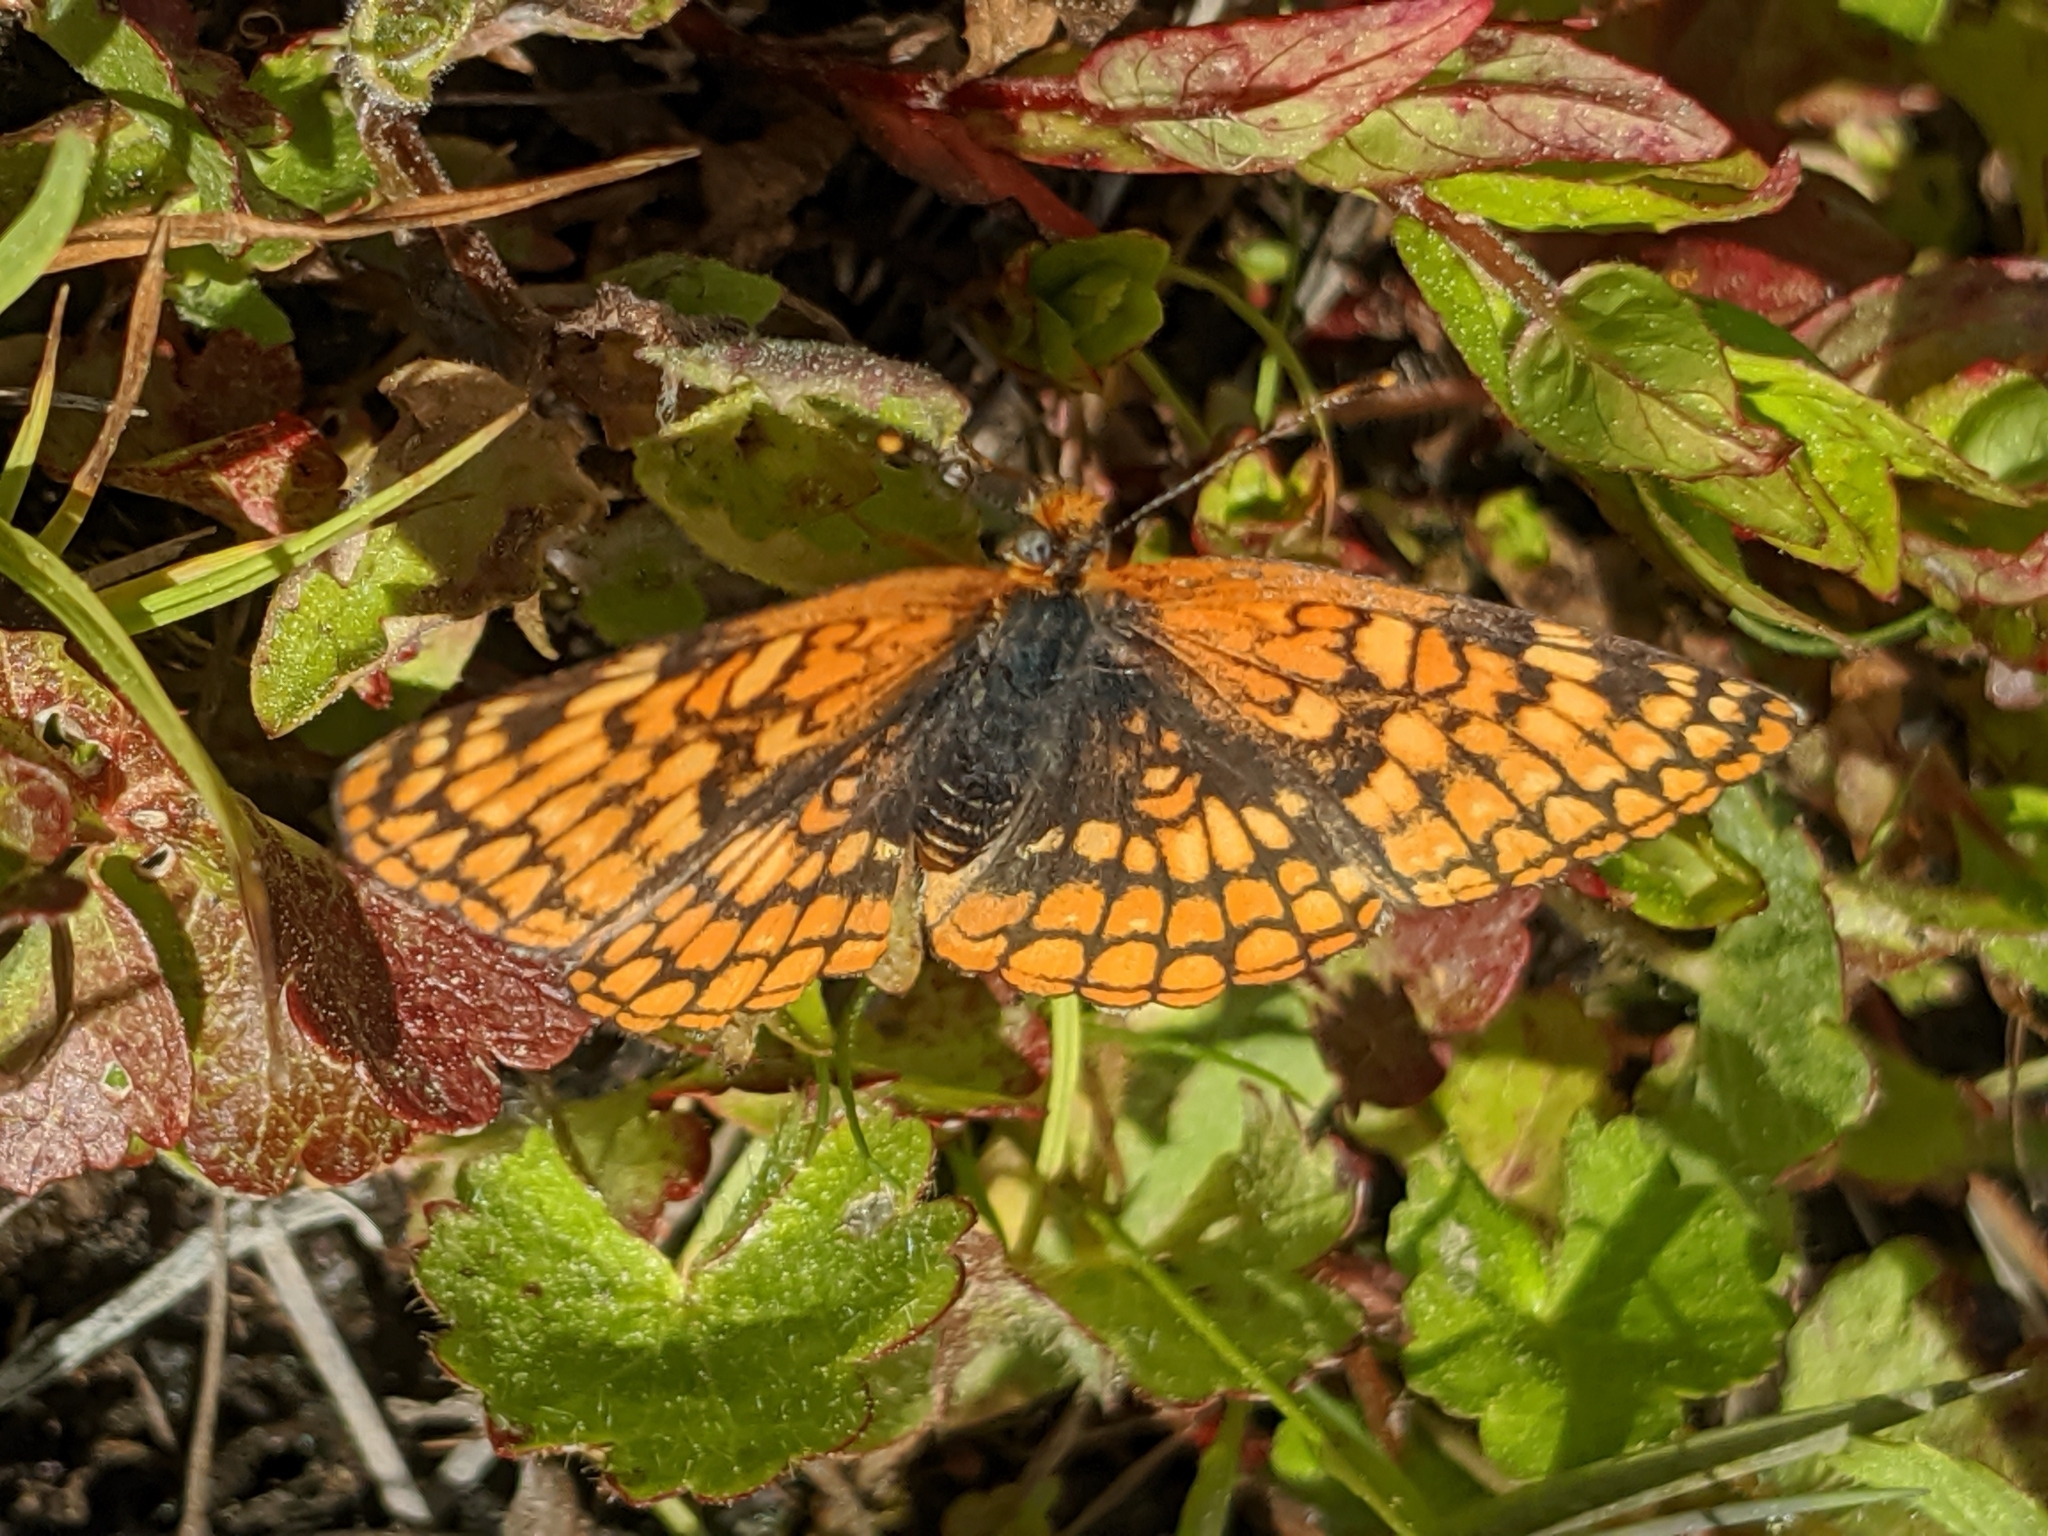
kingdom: Animalia
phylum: Arthropoda
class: Insecta
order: Lepidoptera
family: Nymphalidae
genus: Chlosyne
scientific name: Chlosyne palla
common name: Northern checkerspot
